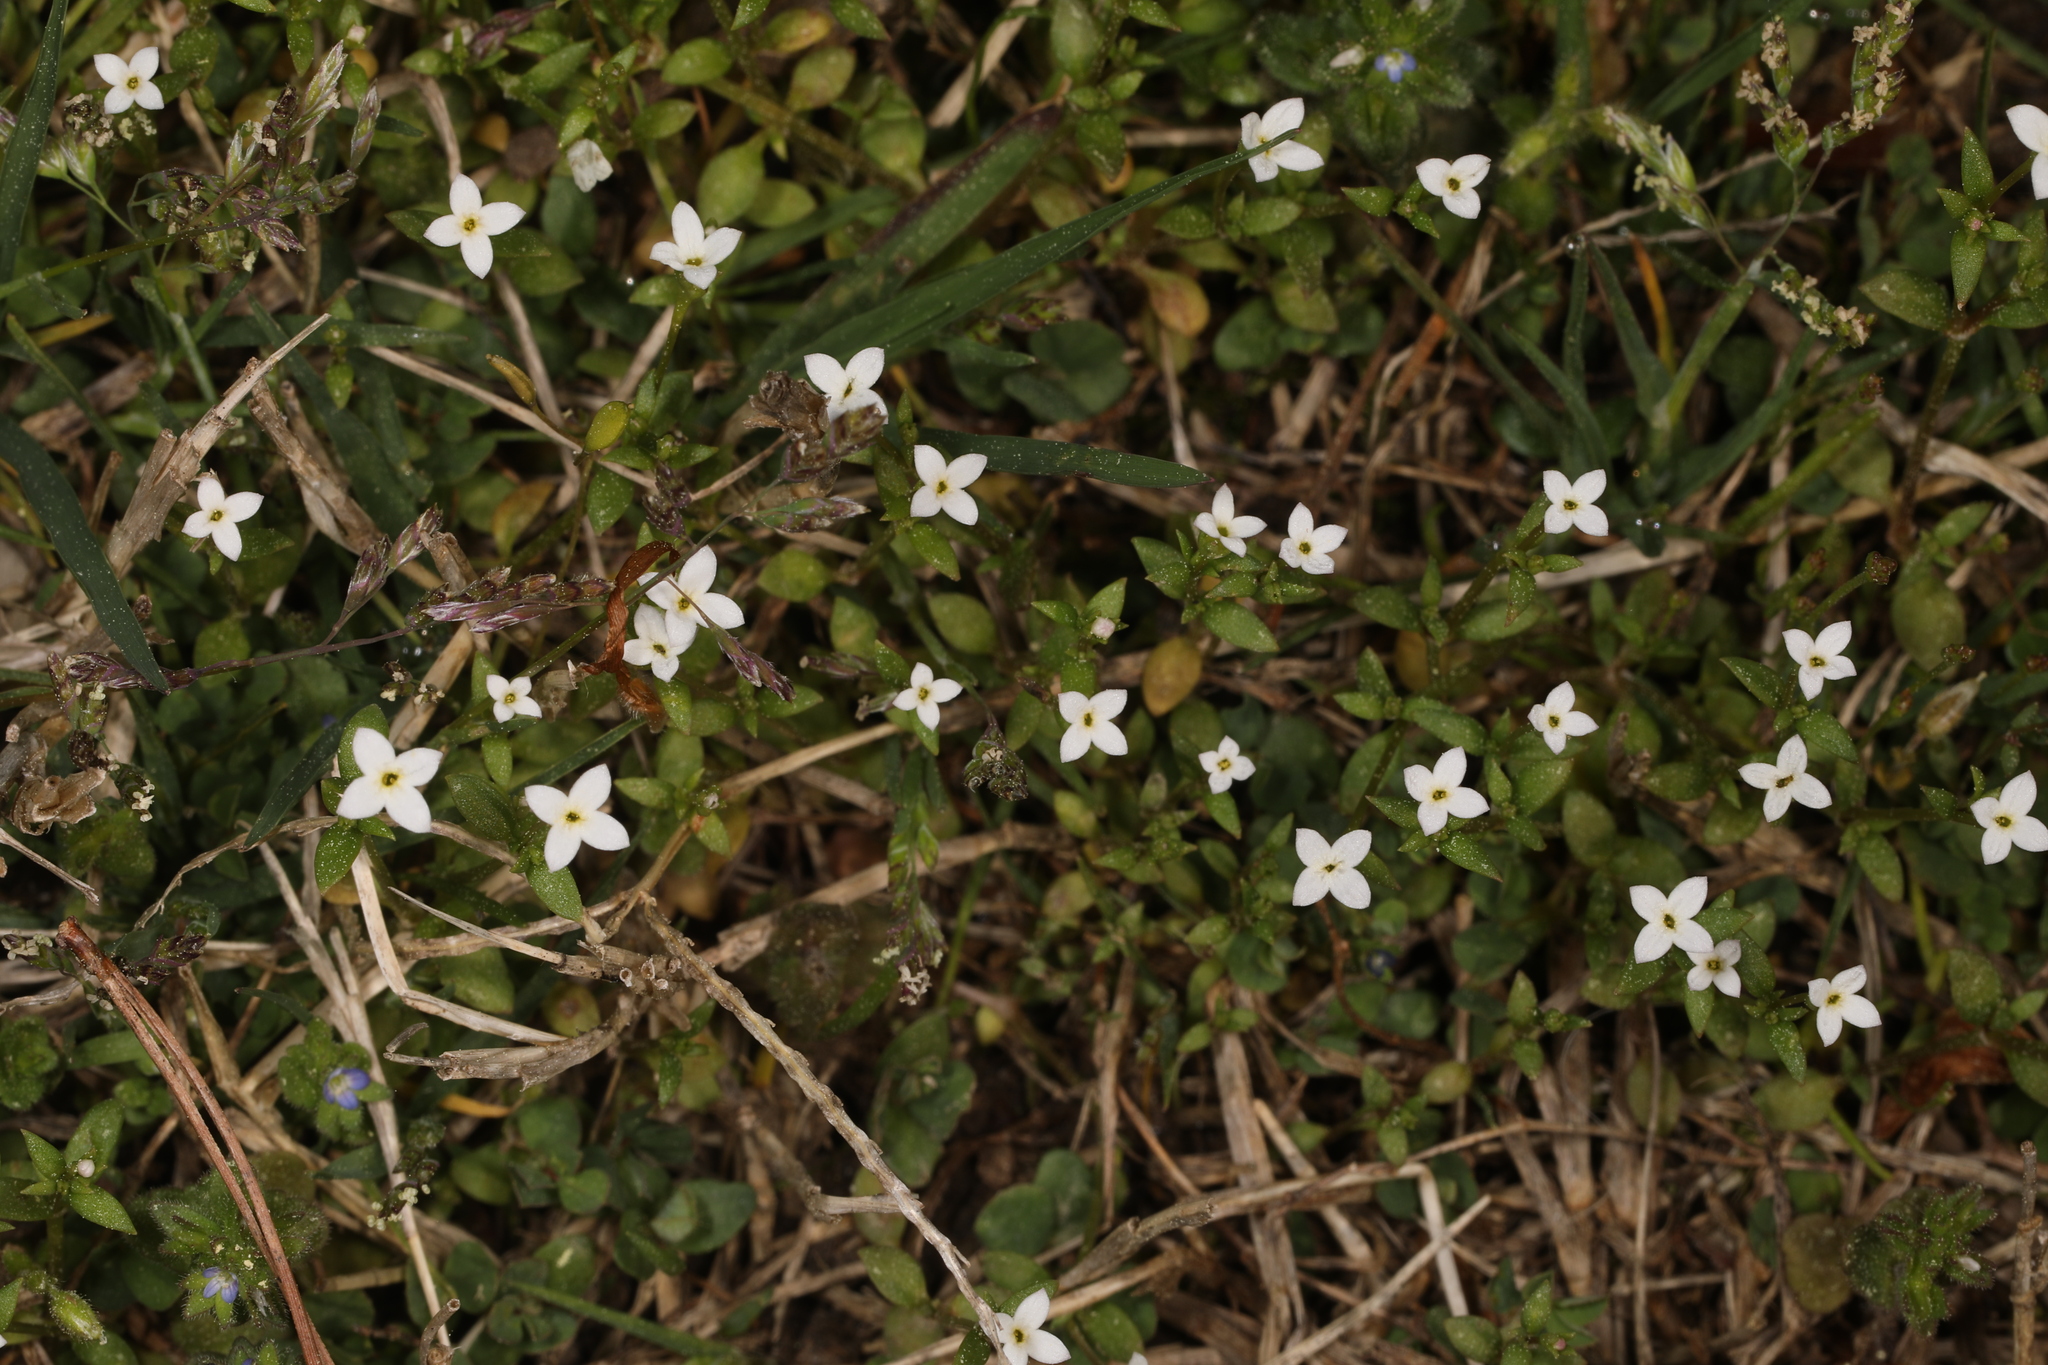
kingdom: Plantae
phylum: Tracheophyta
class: Magnoliopsida
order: Gentianales
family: Rubiaceae
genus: Houstonia
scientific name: Houstonia micrantha
